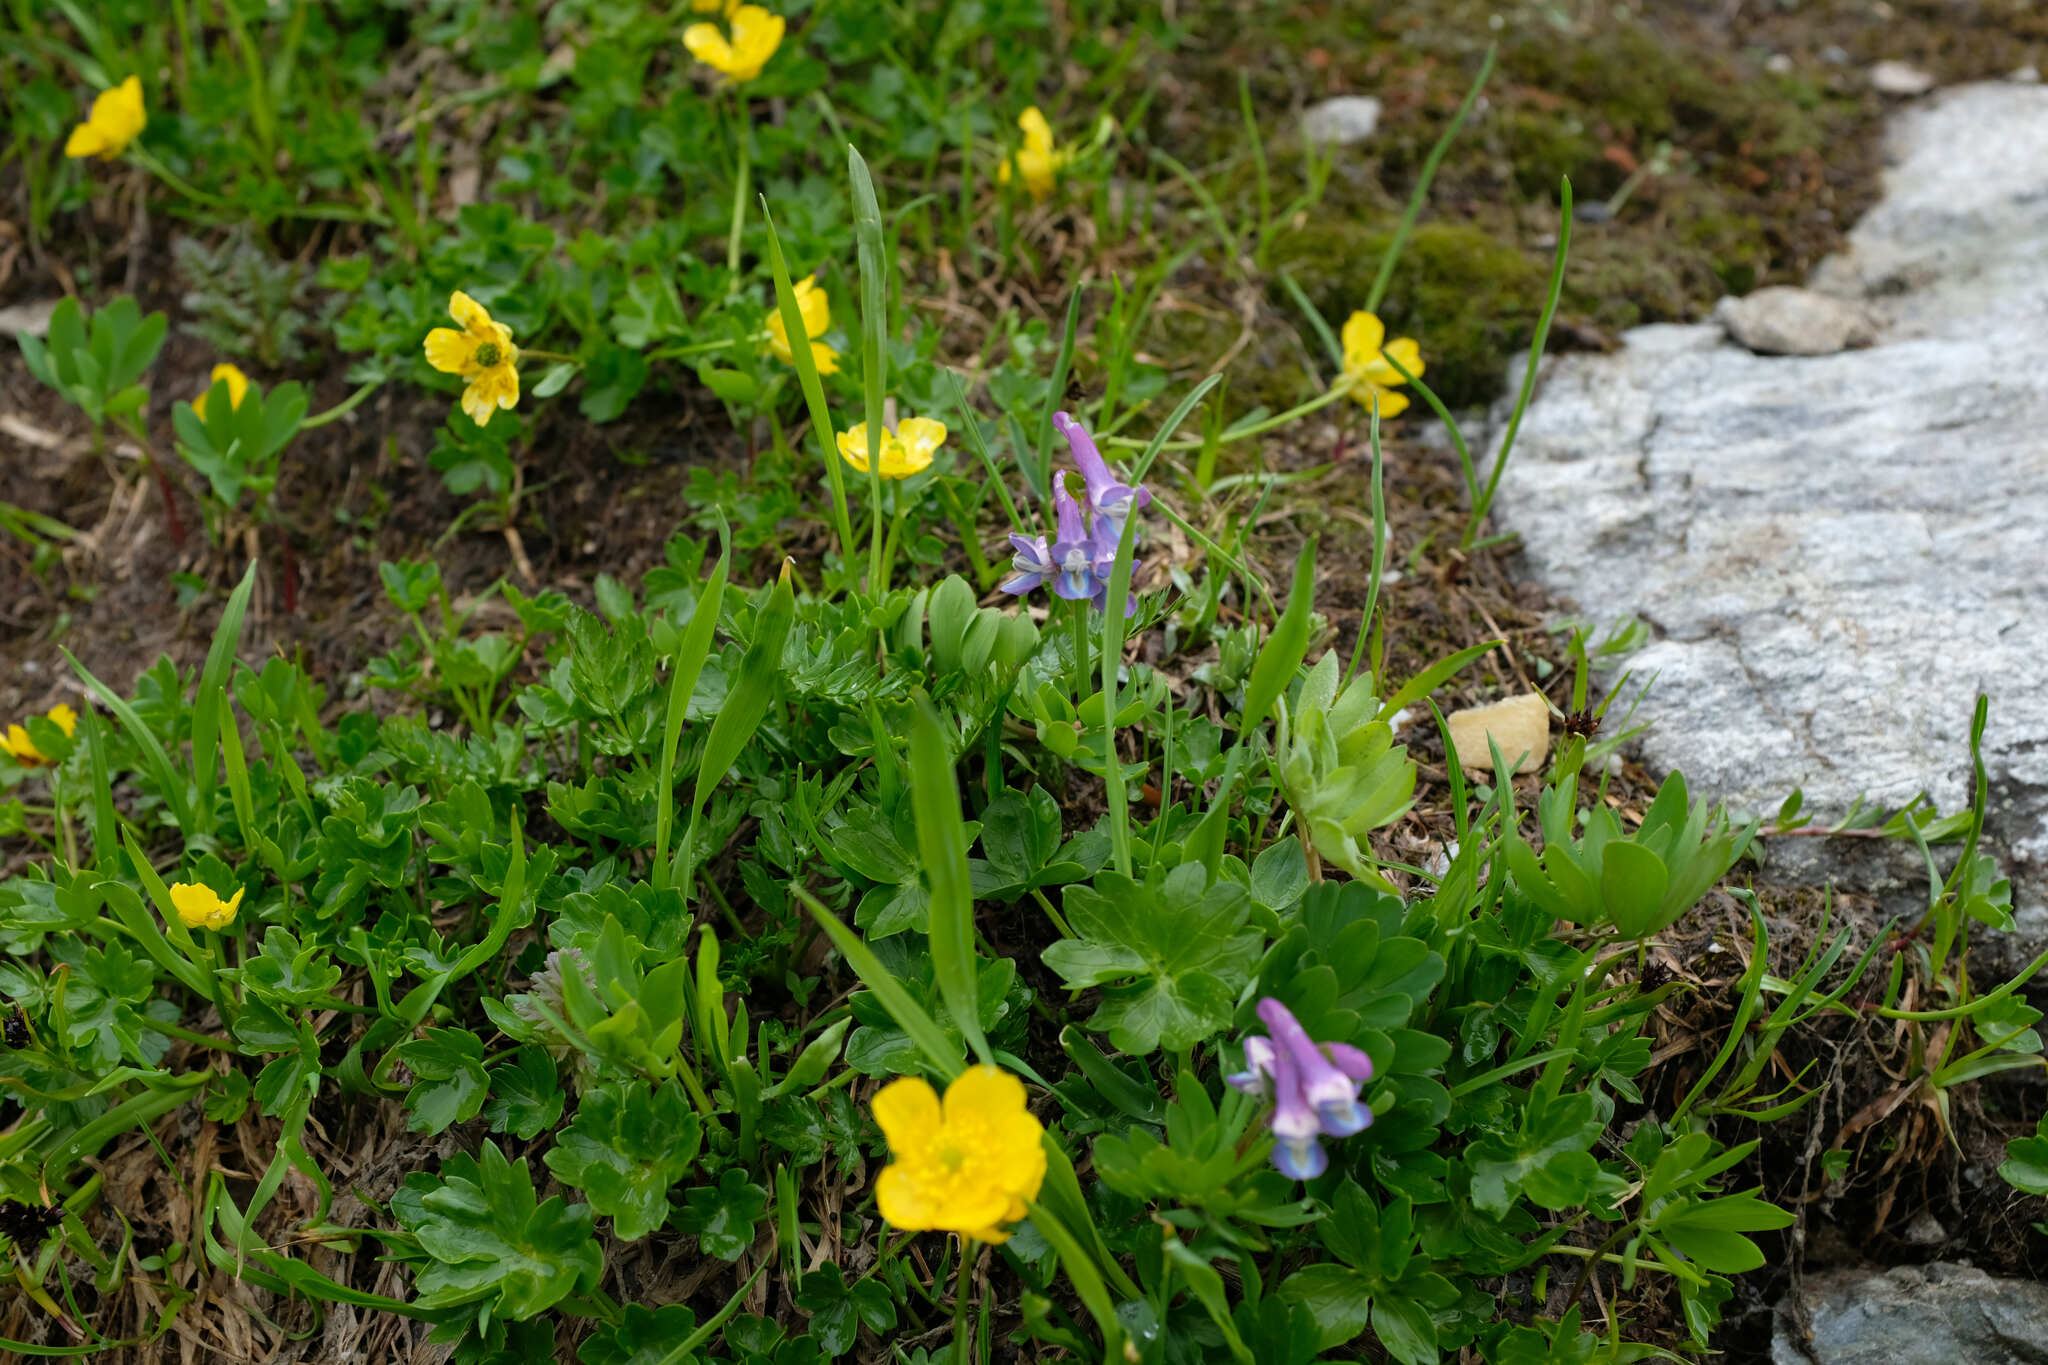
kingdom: Plantae
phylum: Tracheophyta
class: Magnoliopsida
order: Ranunculales
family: Papaveraceae
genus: Corydalis
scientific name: Corydalis conorhiza
